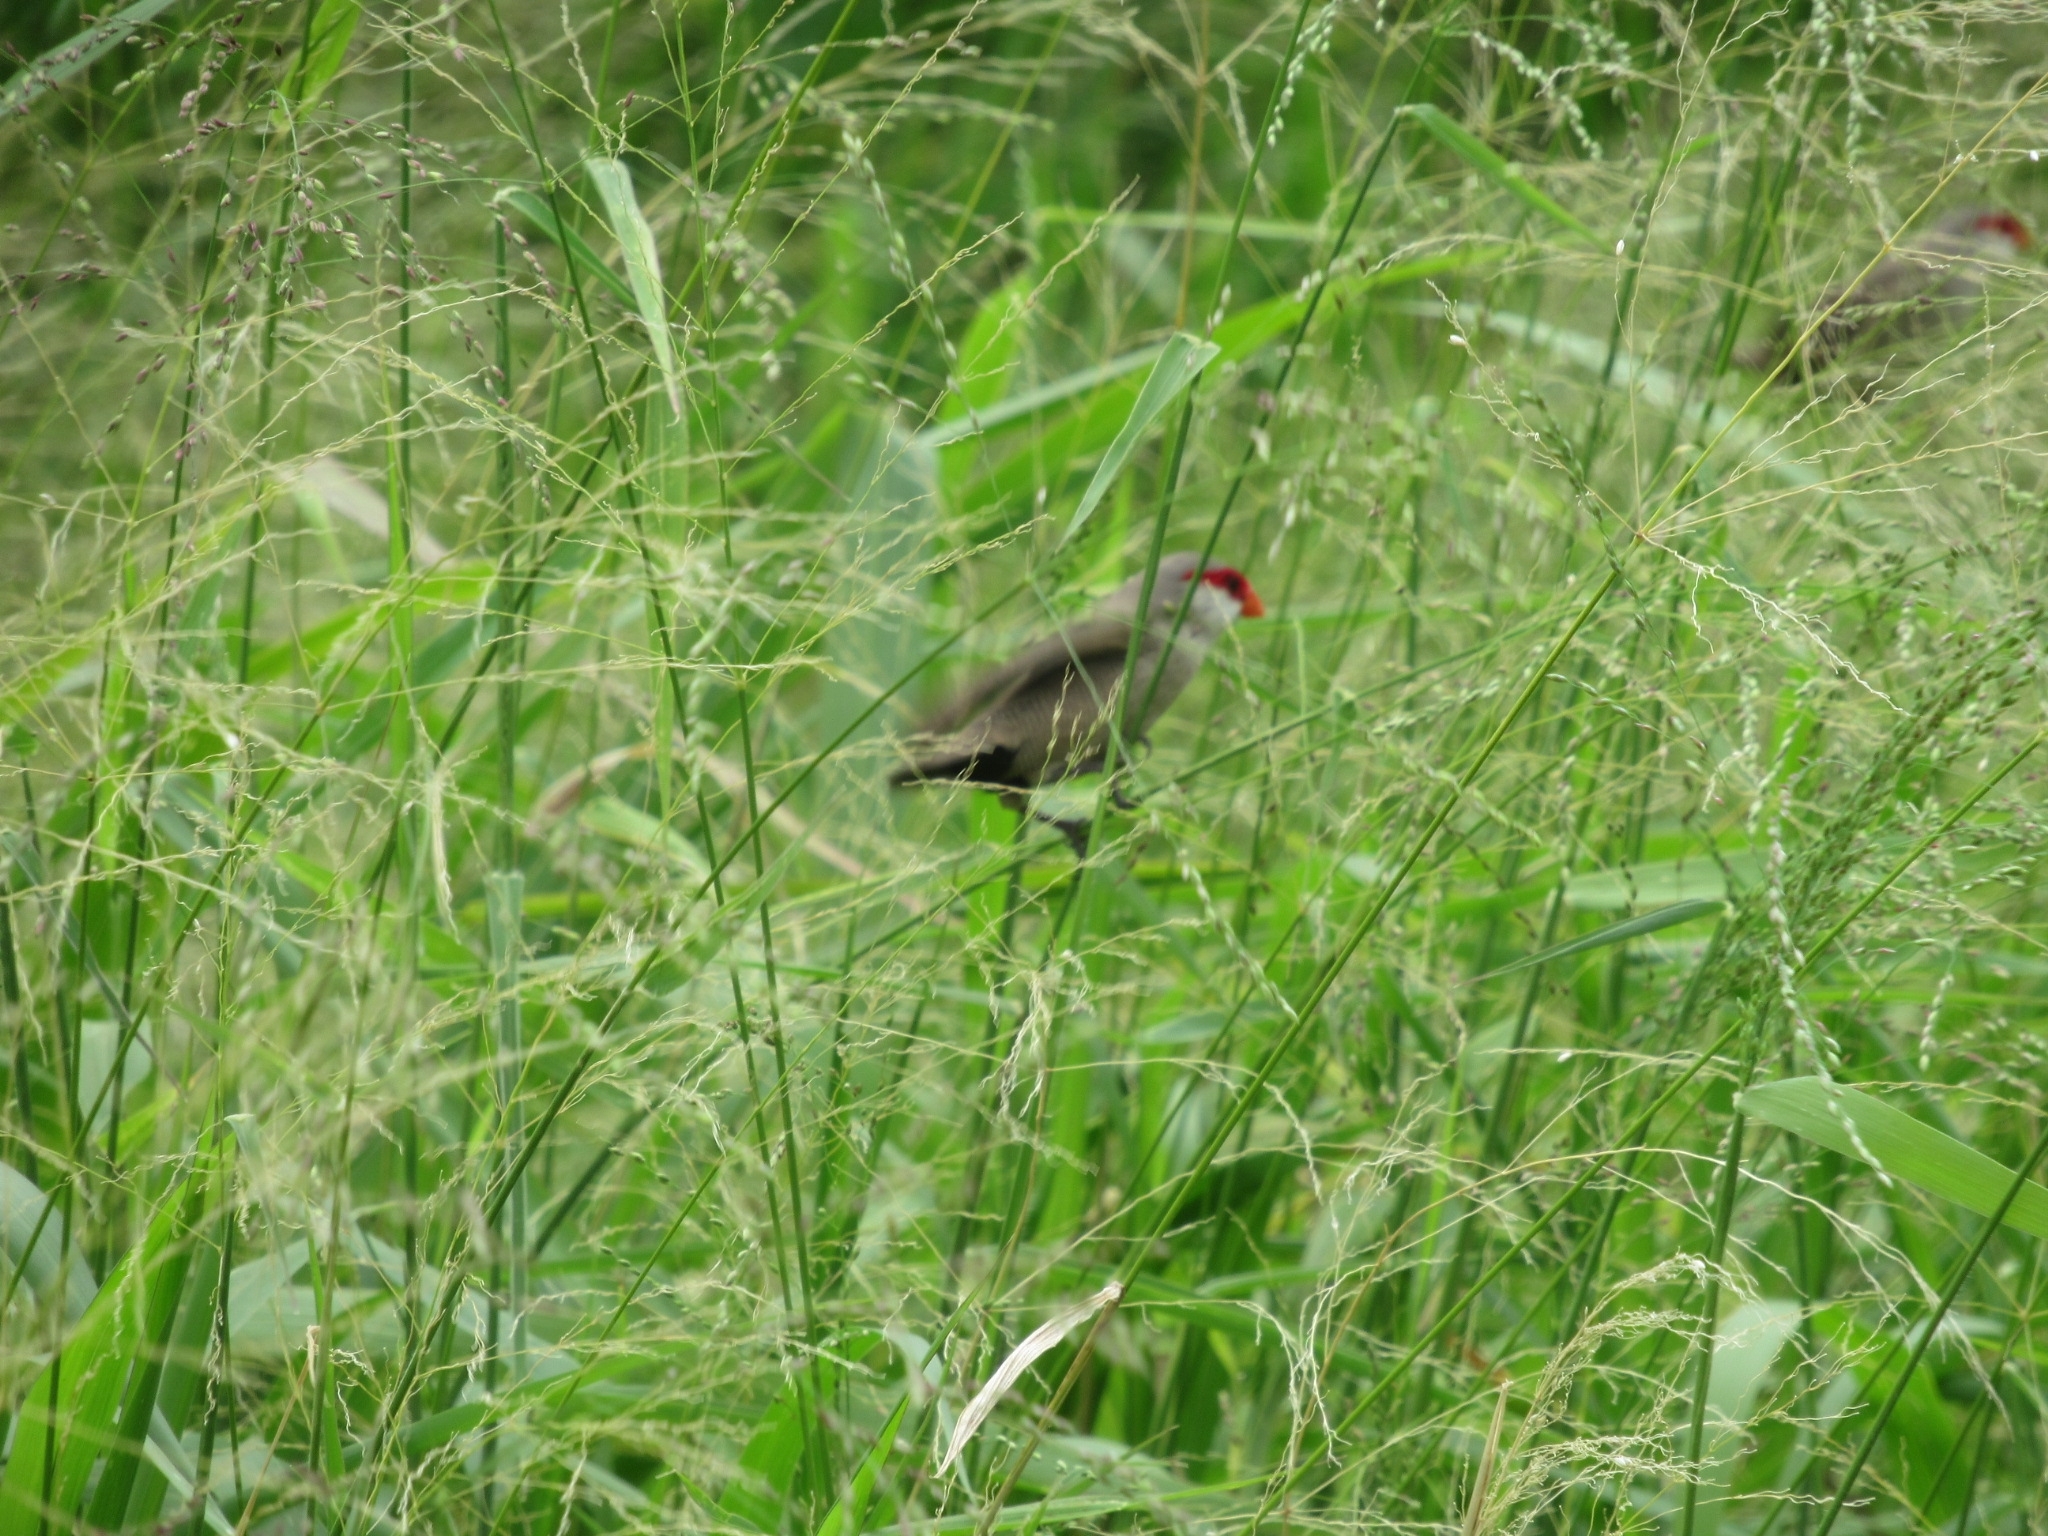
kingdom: Animalia
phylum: Chordata
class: Aves
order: Passeriformes
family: Estrildidae
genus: Estrilda
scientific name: Estrilda astrild
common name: Common waxbill
